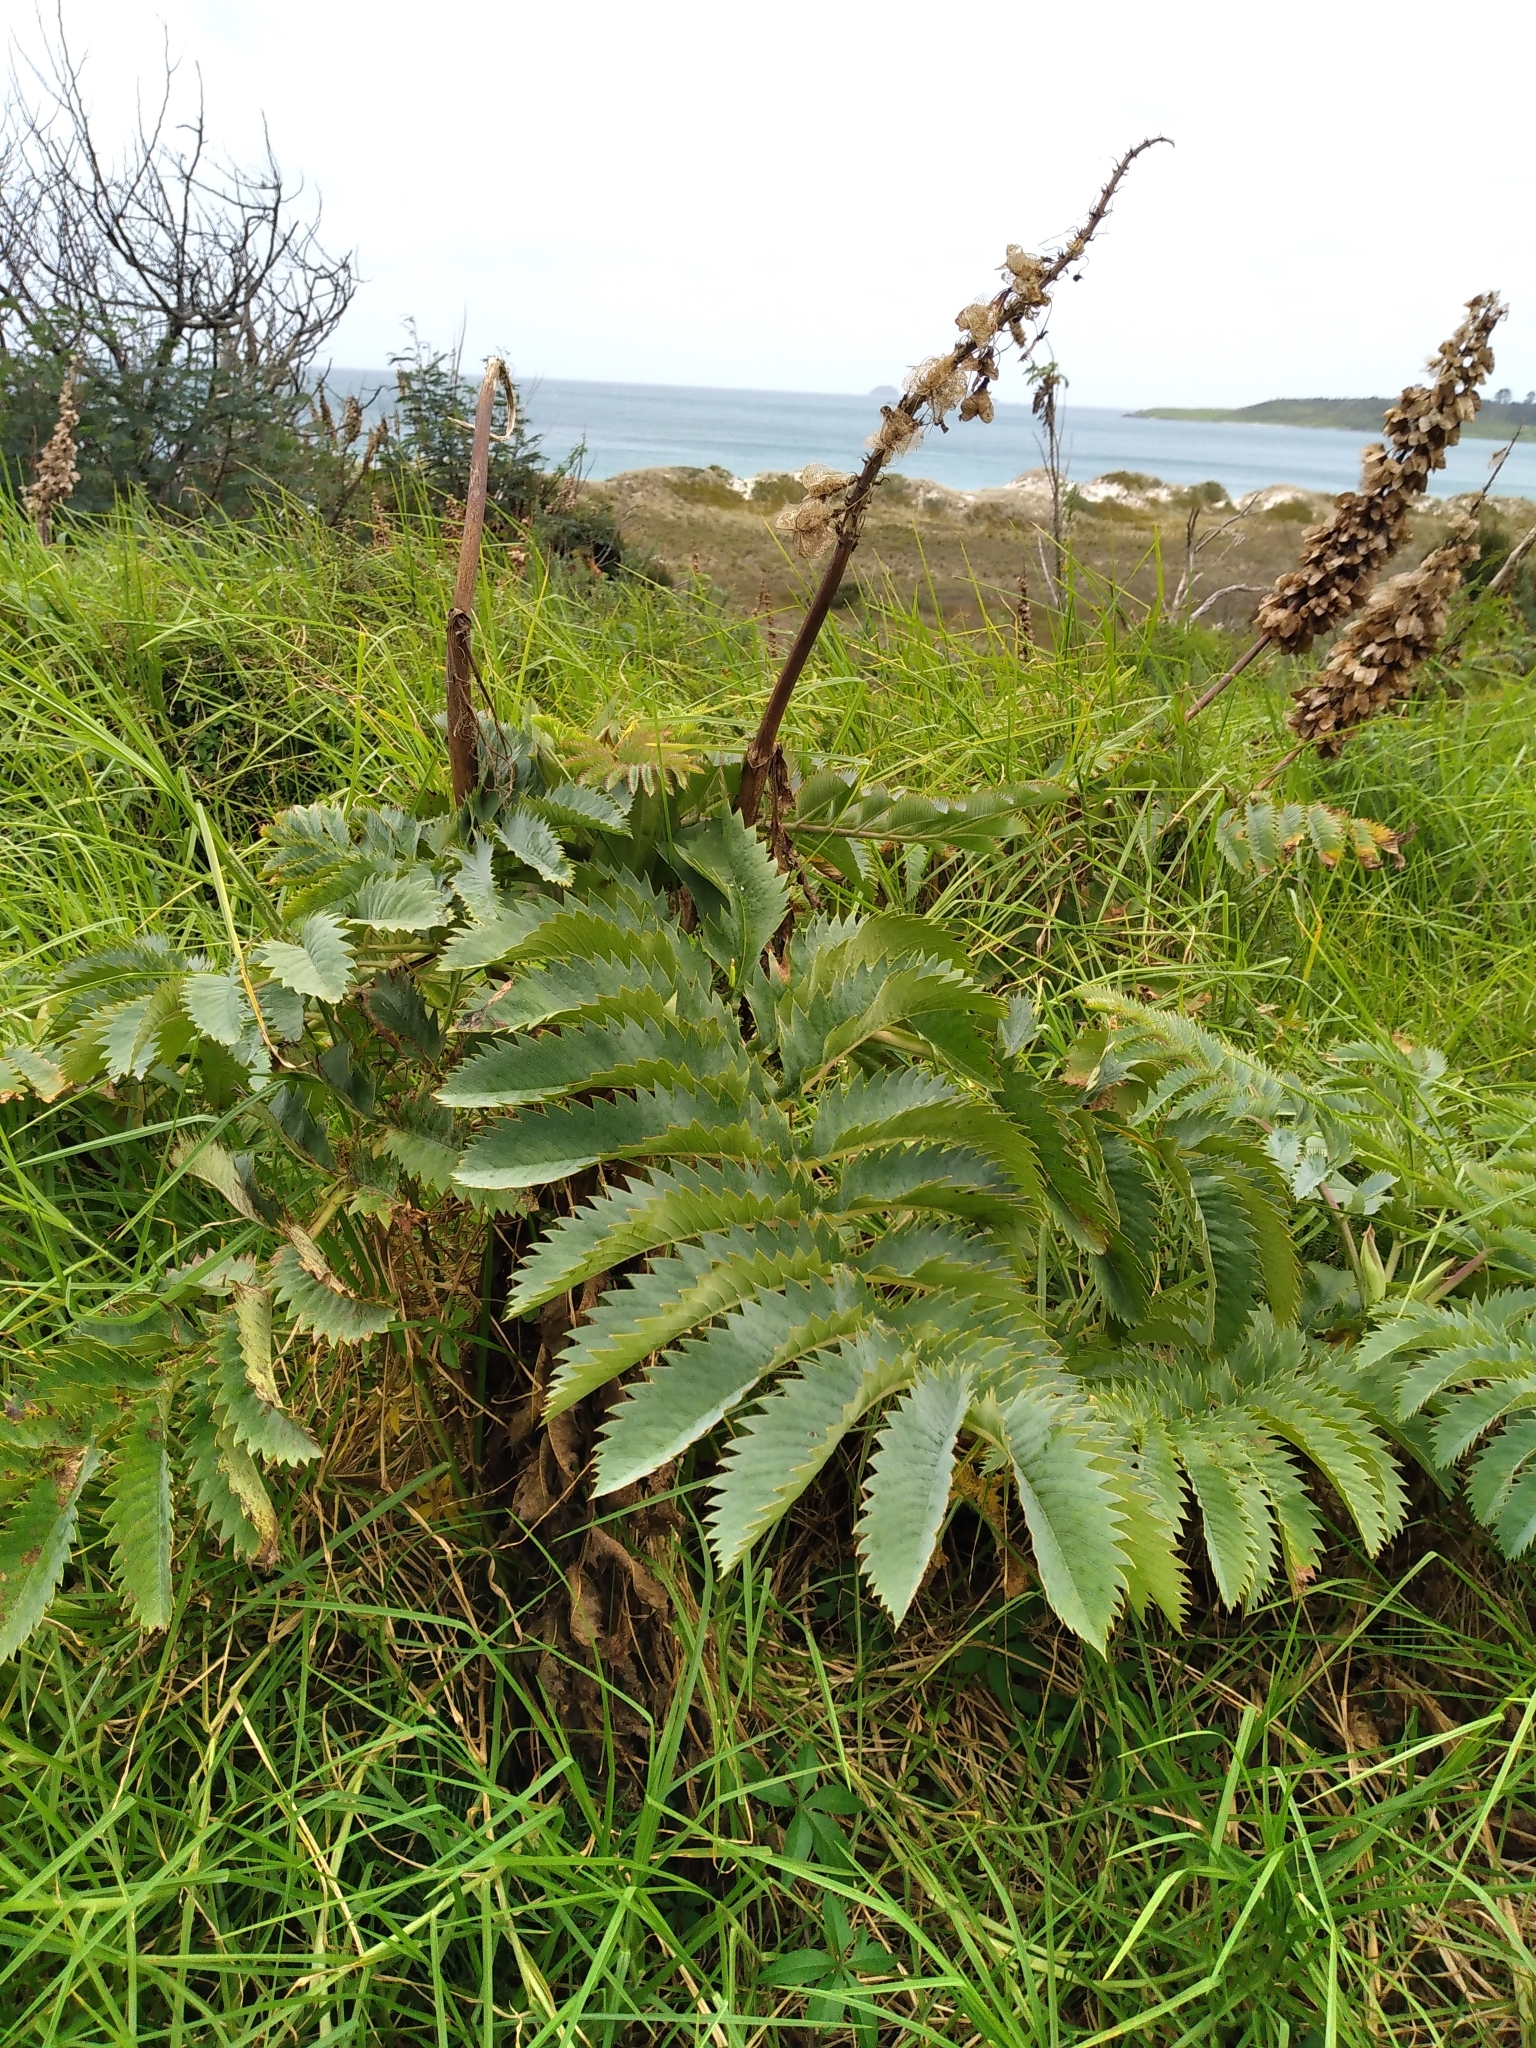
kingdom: Plantae
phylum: Tracheophyta
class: Magnoliopsida
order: Geraniales
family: Melianthaceae
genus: Melianthus
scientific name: Melianthus major
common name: Honey-flower
